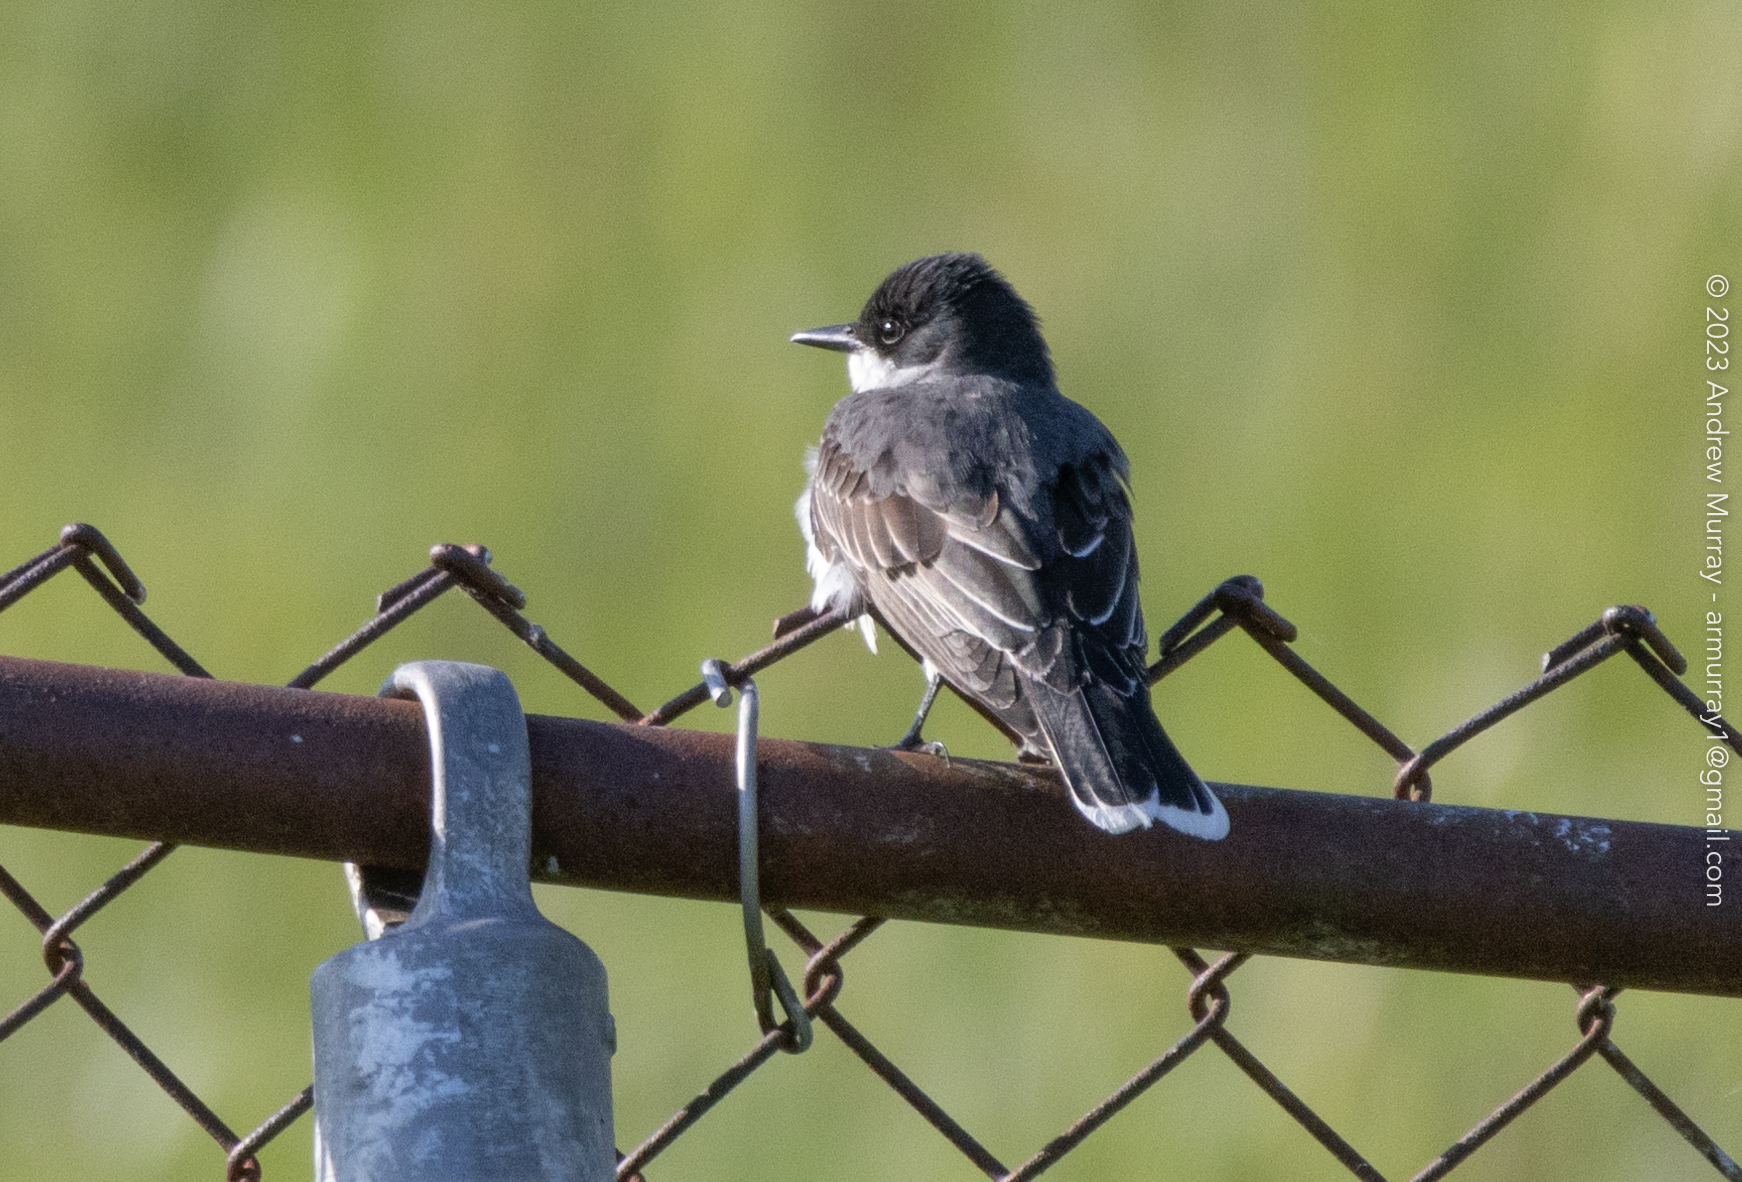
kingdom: Animalia
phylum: Chordata
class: Aves
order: Passeriformes
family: Tyrannidae
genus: Tyrannus
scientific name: Tyrannus tyrannus
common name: Eastern kingbird
